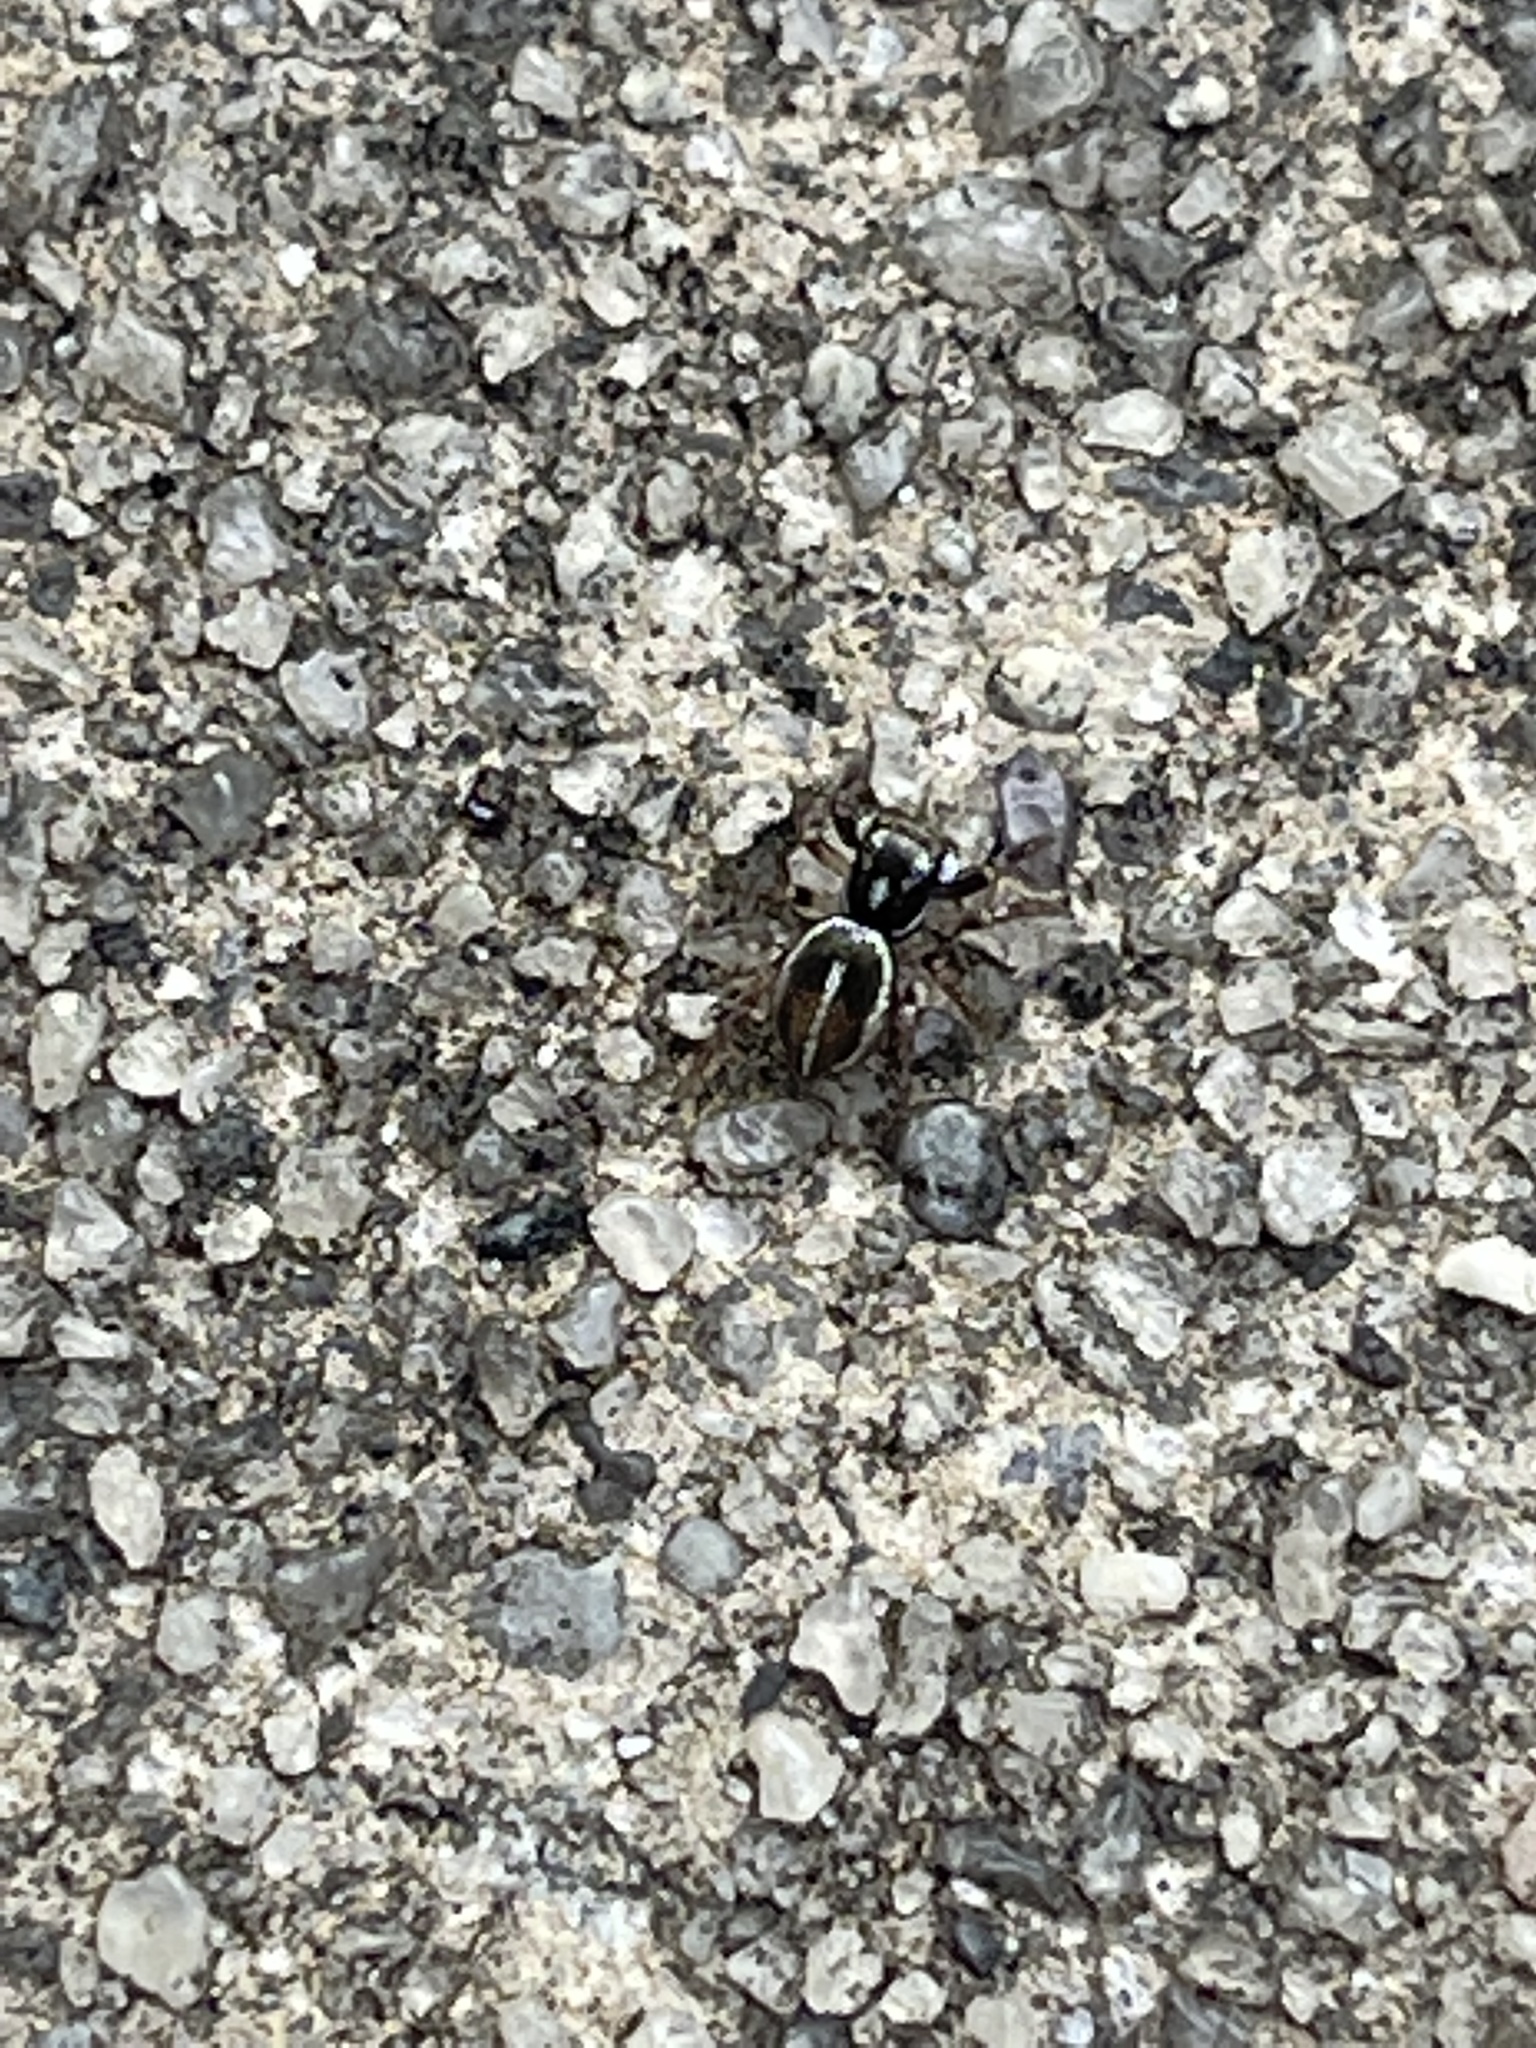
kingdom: Animalia
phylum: Arthropoda
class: Arachnida
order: Araneae
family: Salticidae
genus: Anasaitis
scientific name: Anasaitis canosa
